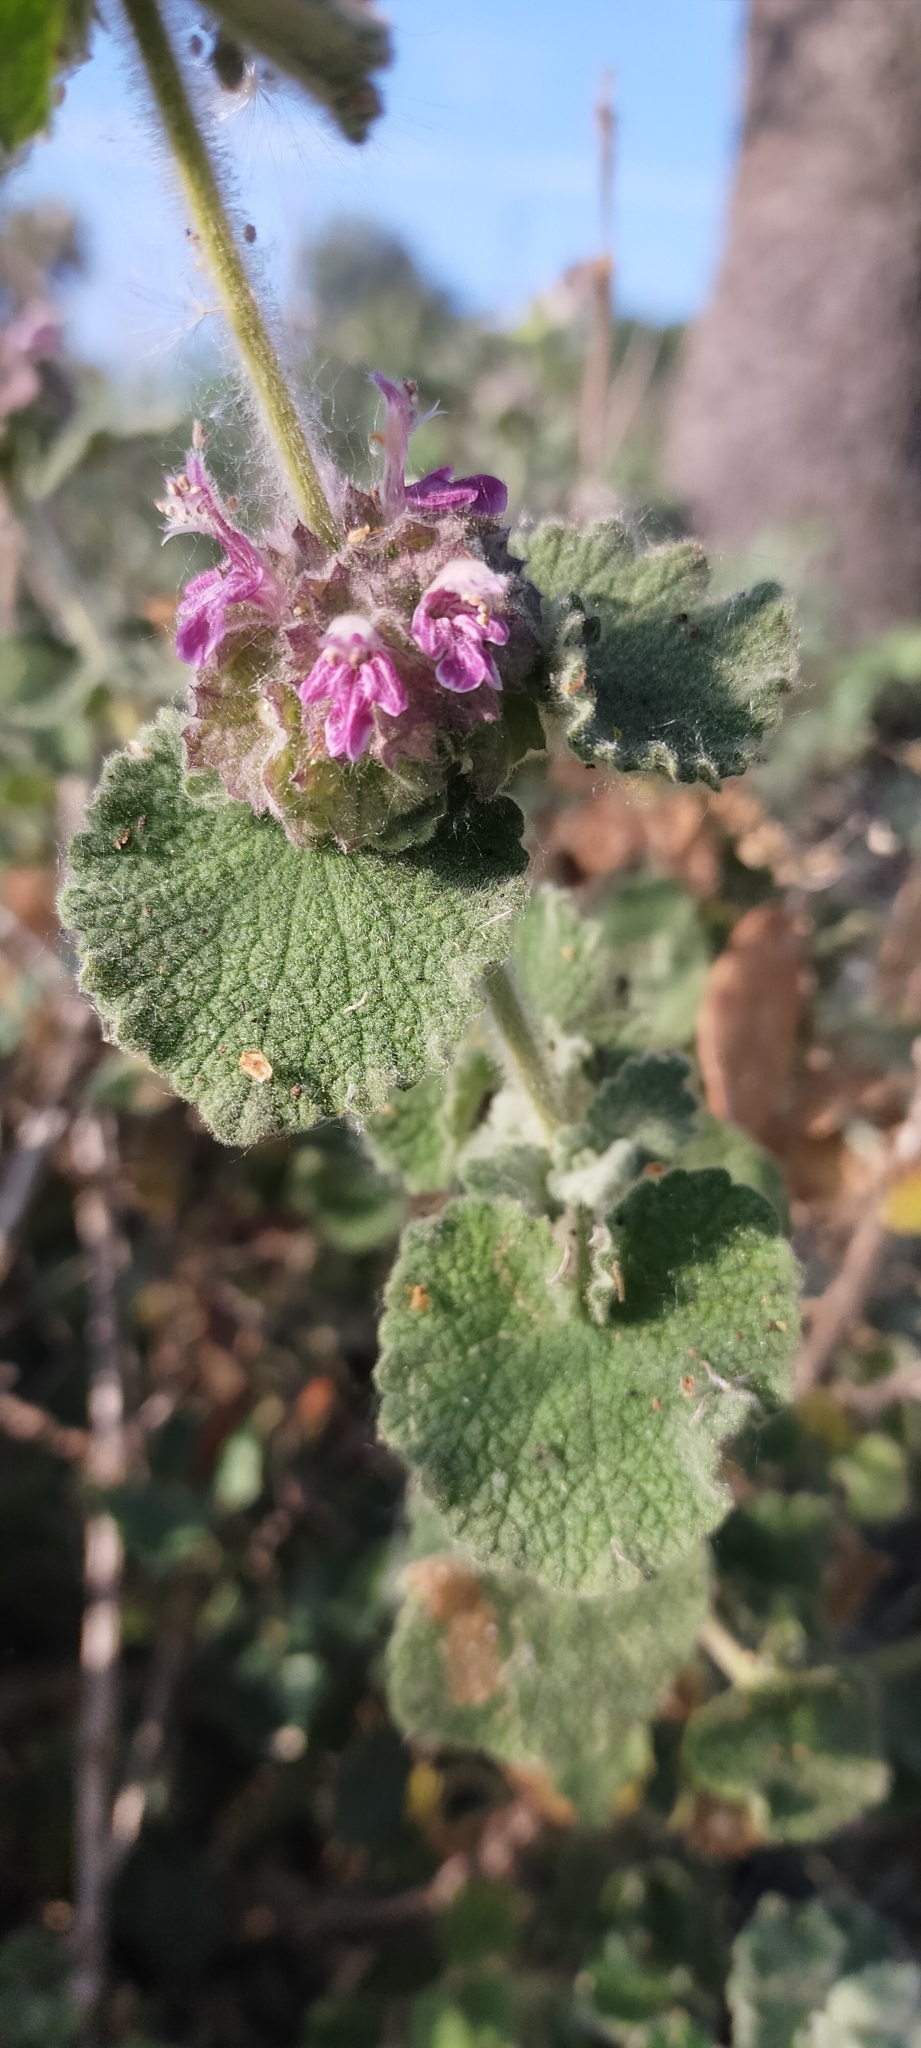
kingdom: Plantae
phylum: Tracheophyta
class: Magnoliopsida
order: Lamiales
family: Lamiaceae
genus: Pseudodictamnus
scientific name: Pseudodictamnus hirsutus
